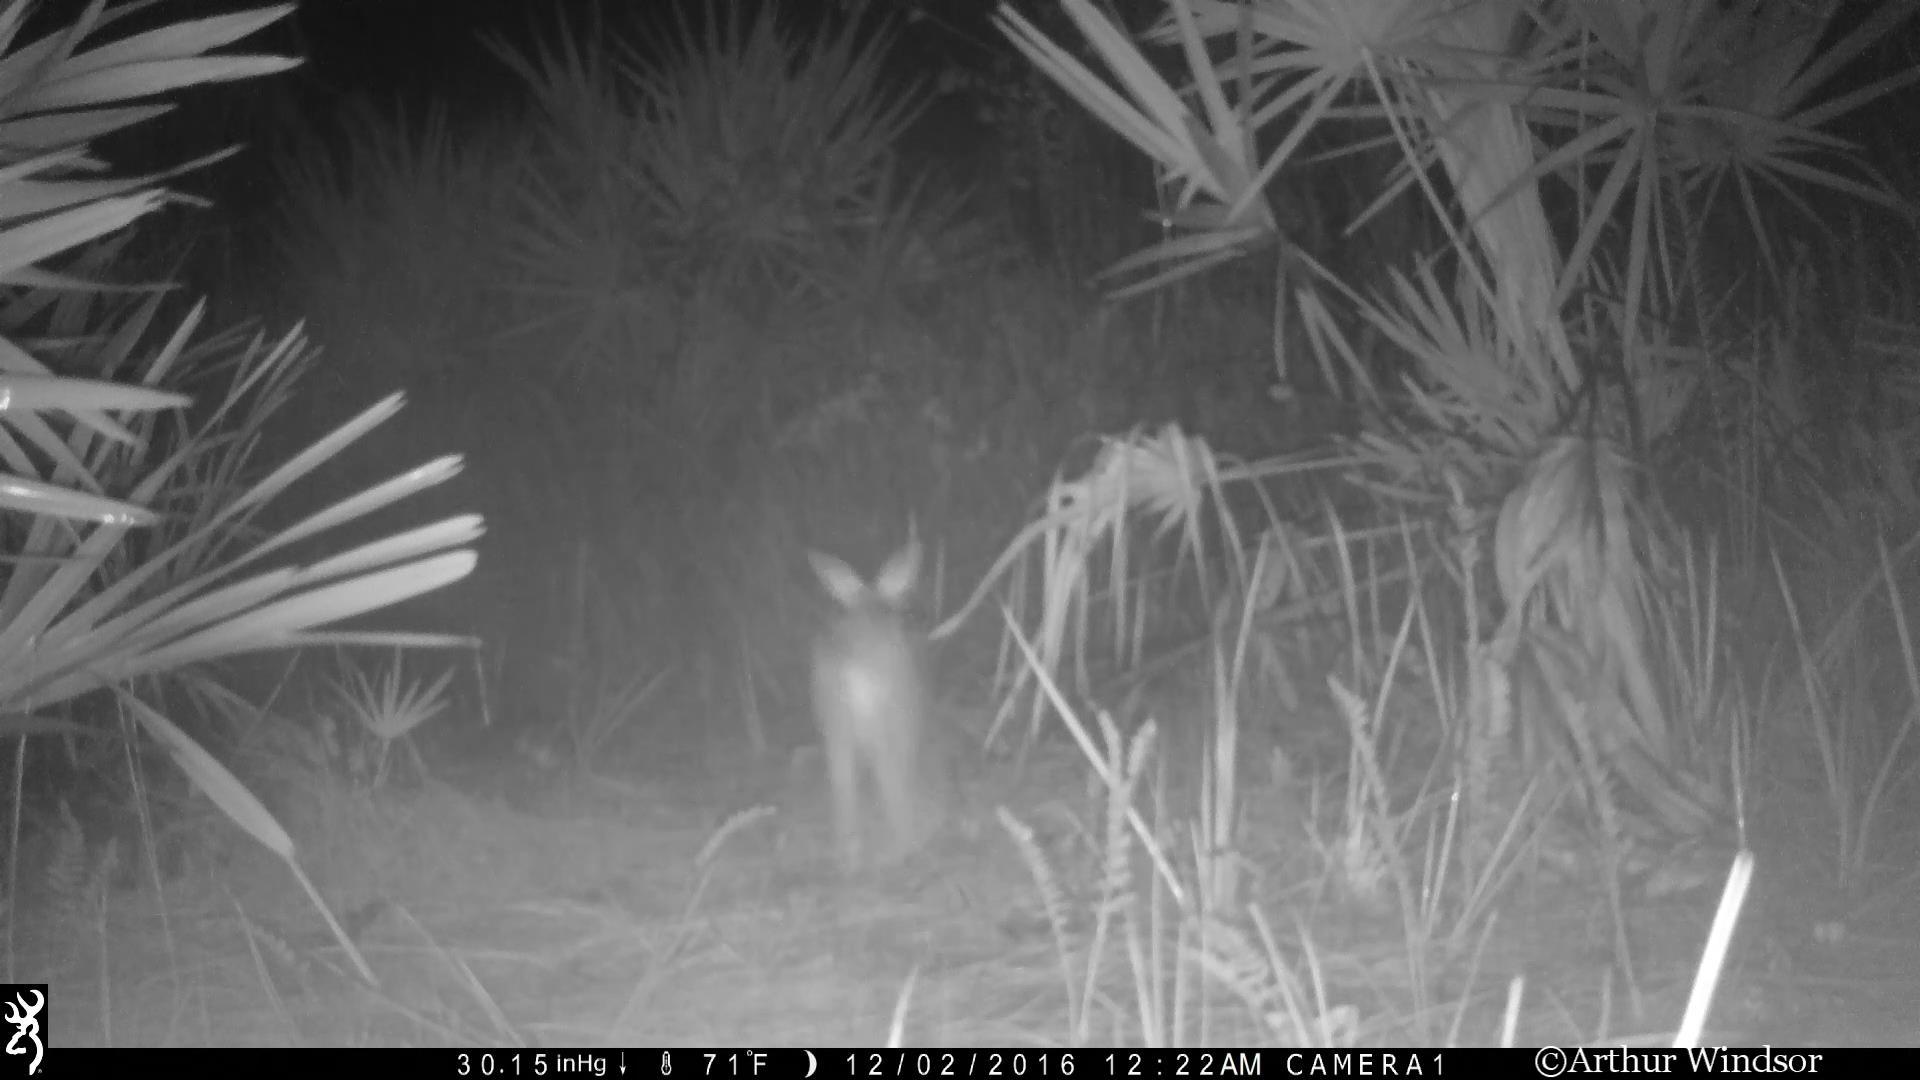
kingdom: Animalia
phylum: Chordata
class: Mammalia
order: Lagomorpha
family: Leporidae
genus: Sylvilagus
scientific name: Sylvilagus floridanus
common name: Eastern cottontail
